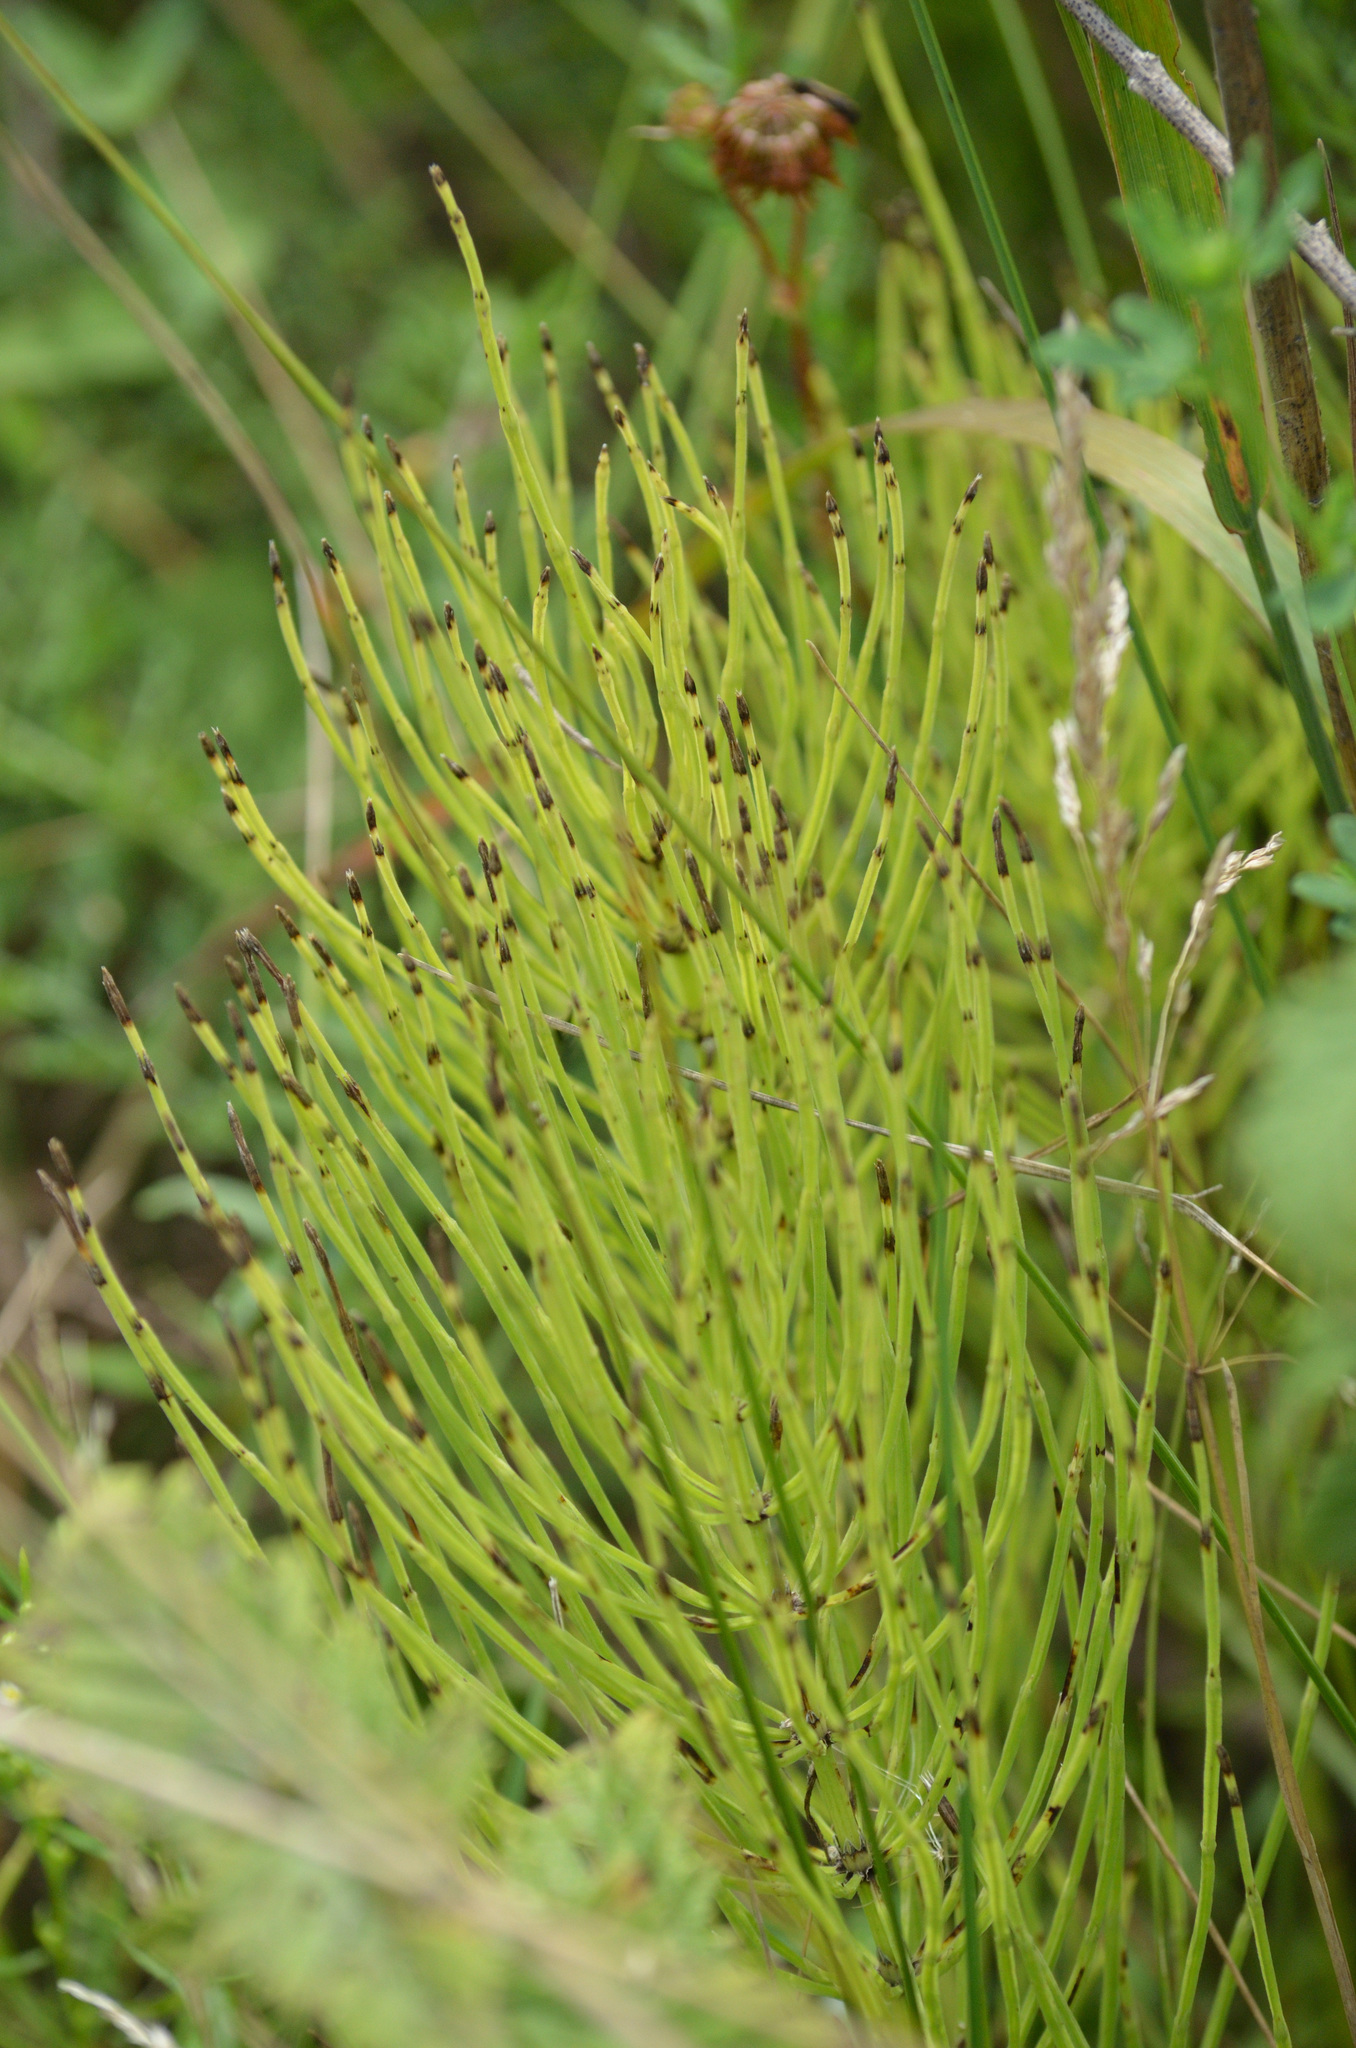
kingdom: Plantae
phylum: Tracheophyta
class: Polypodiopsida
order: Equisetales
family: Equisetaceae
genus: Equisetum
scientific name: Equisetum arvense
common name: Field horsetail
